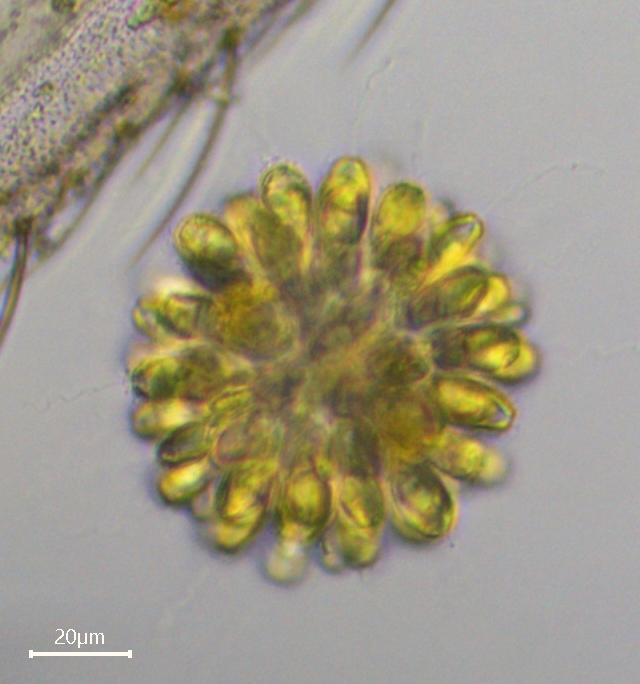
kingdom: Chromista
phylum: Ochrophyta
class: Synurophyceae
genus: Synura
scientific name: Synura
